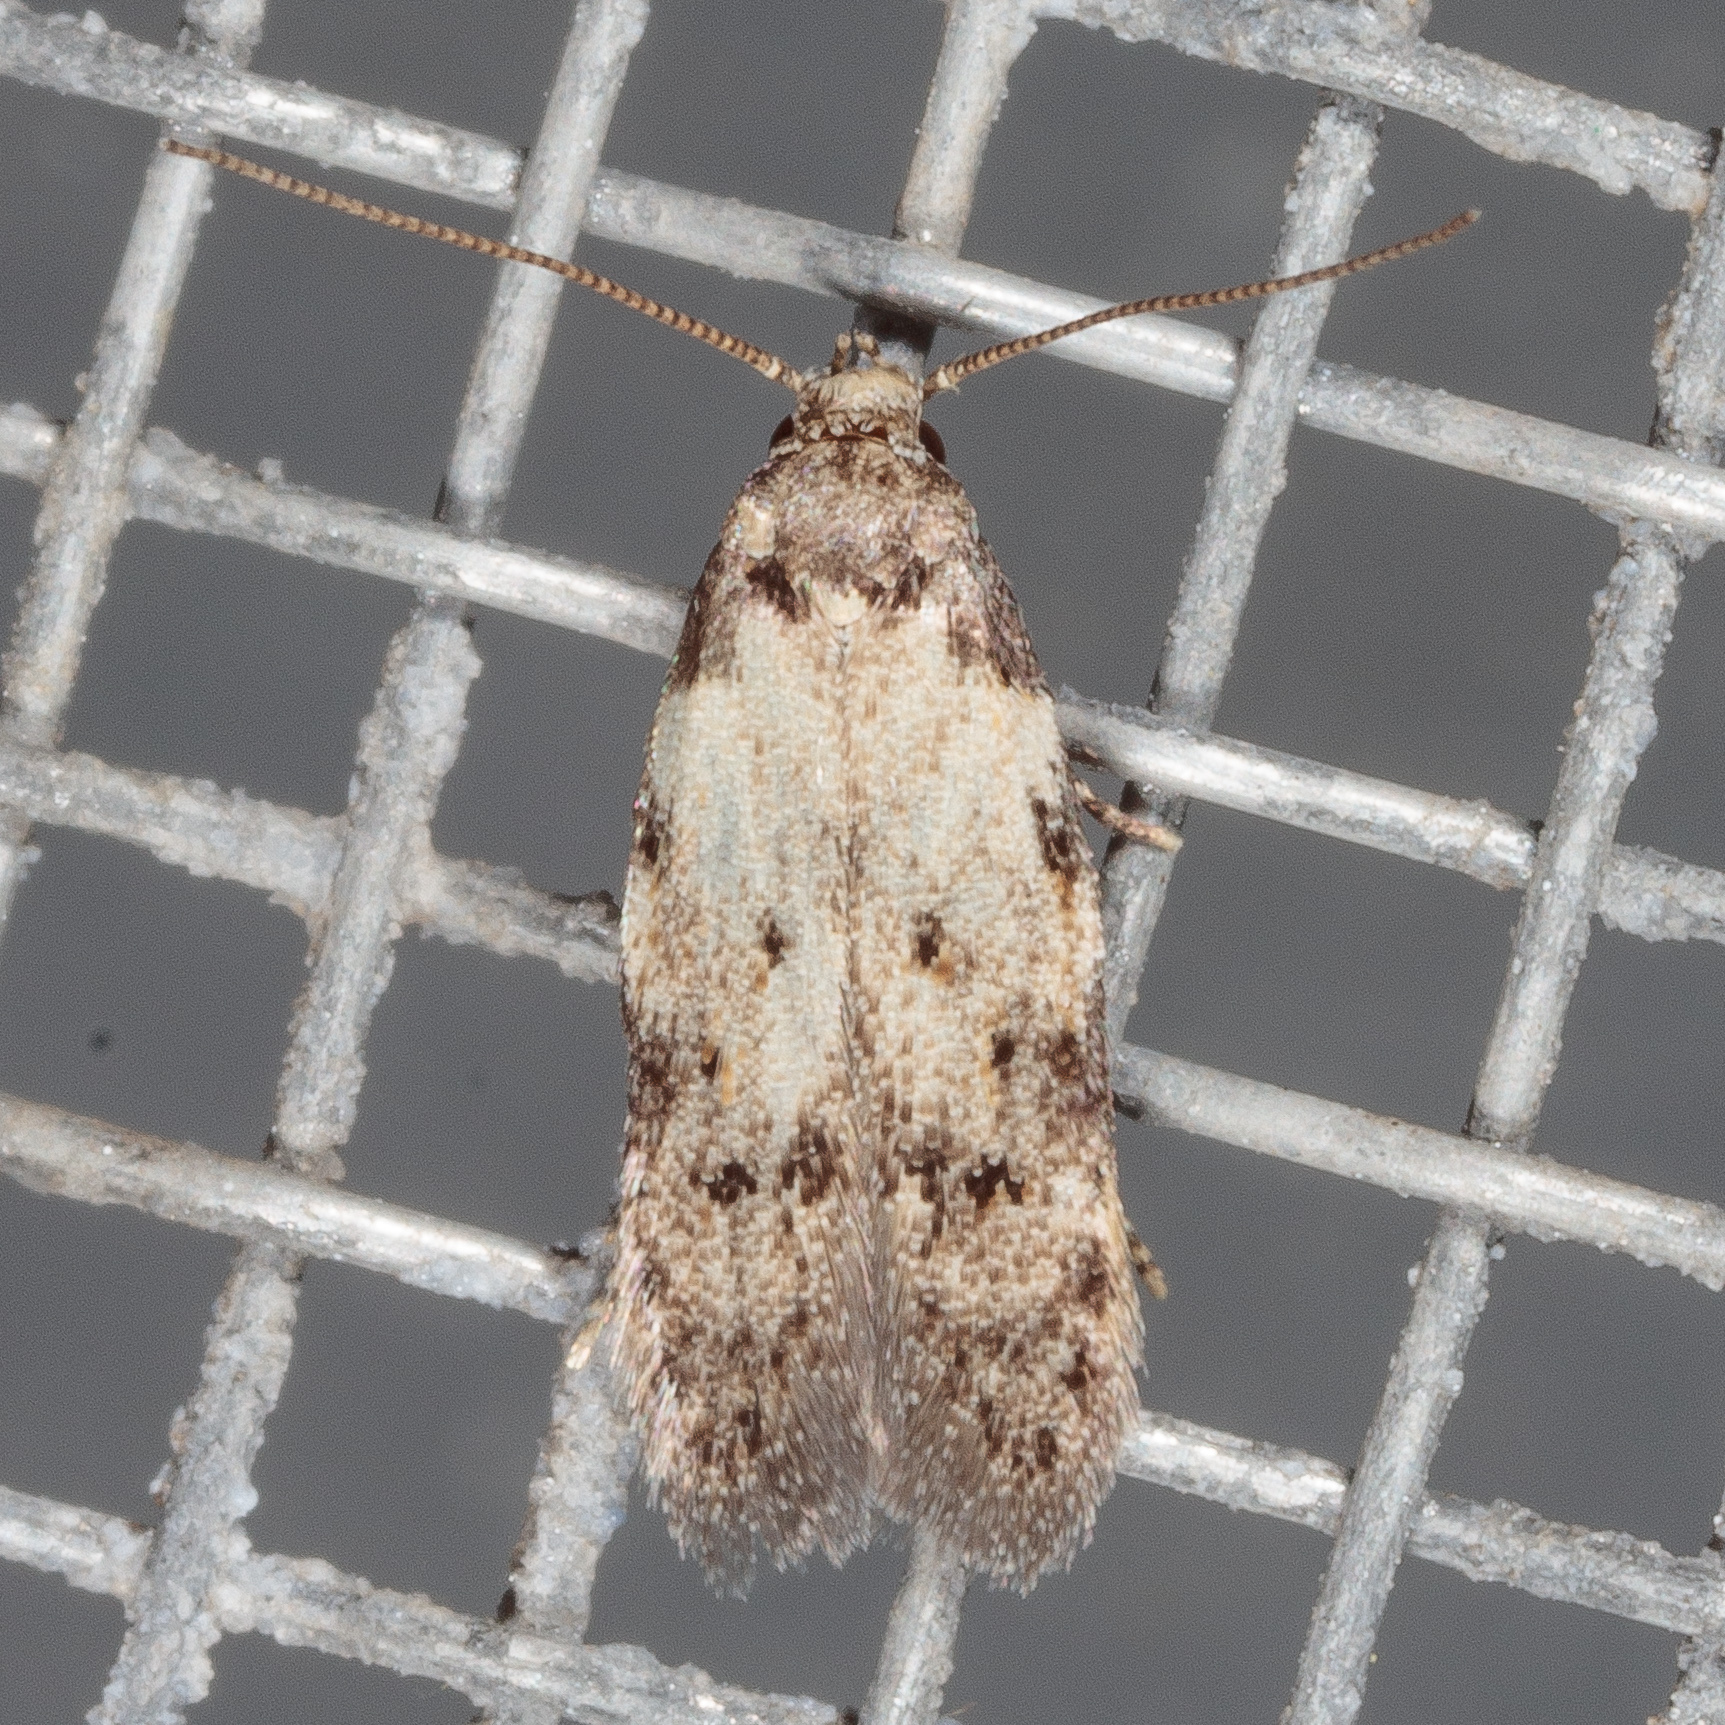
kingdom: Animalia
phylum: Arthropoda
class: Insecta
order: Lepidoptera
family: Autostichidae
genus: Taygete
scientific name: Taygete attributella
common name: Triangle-marked twirler moth
